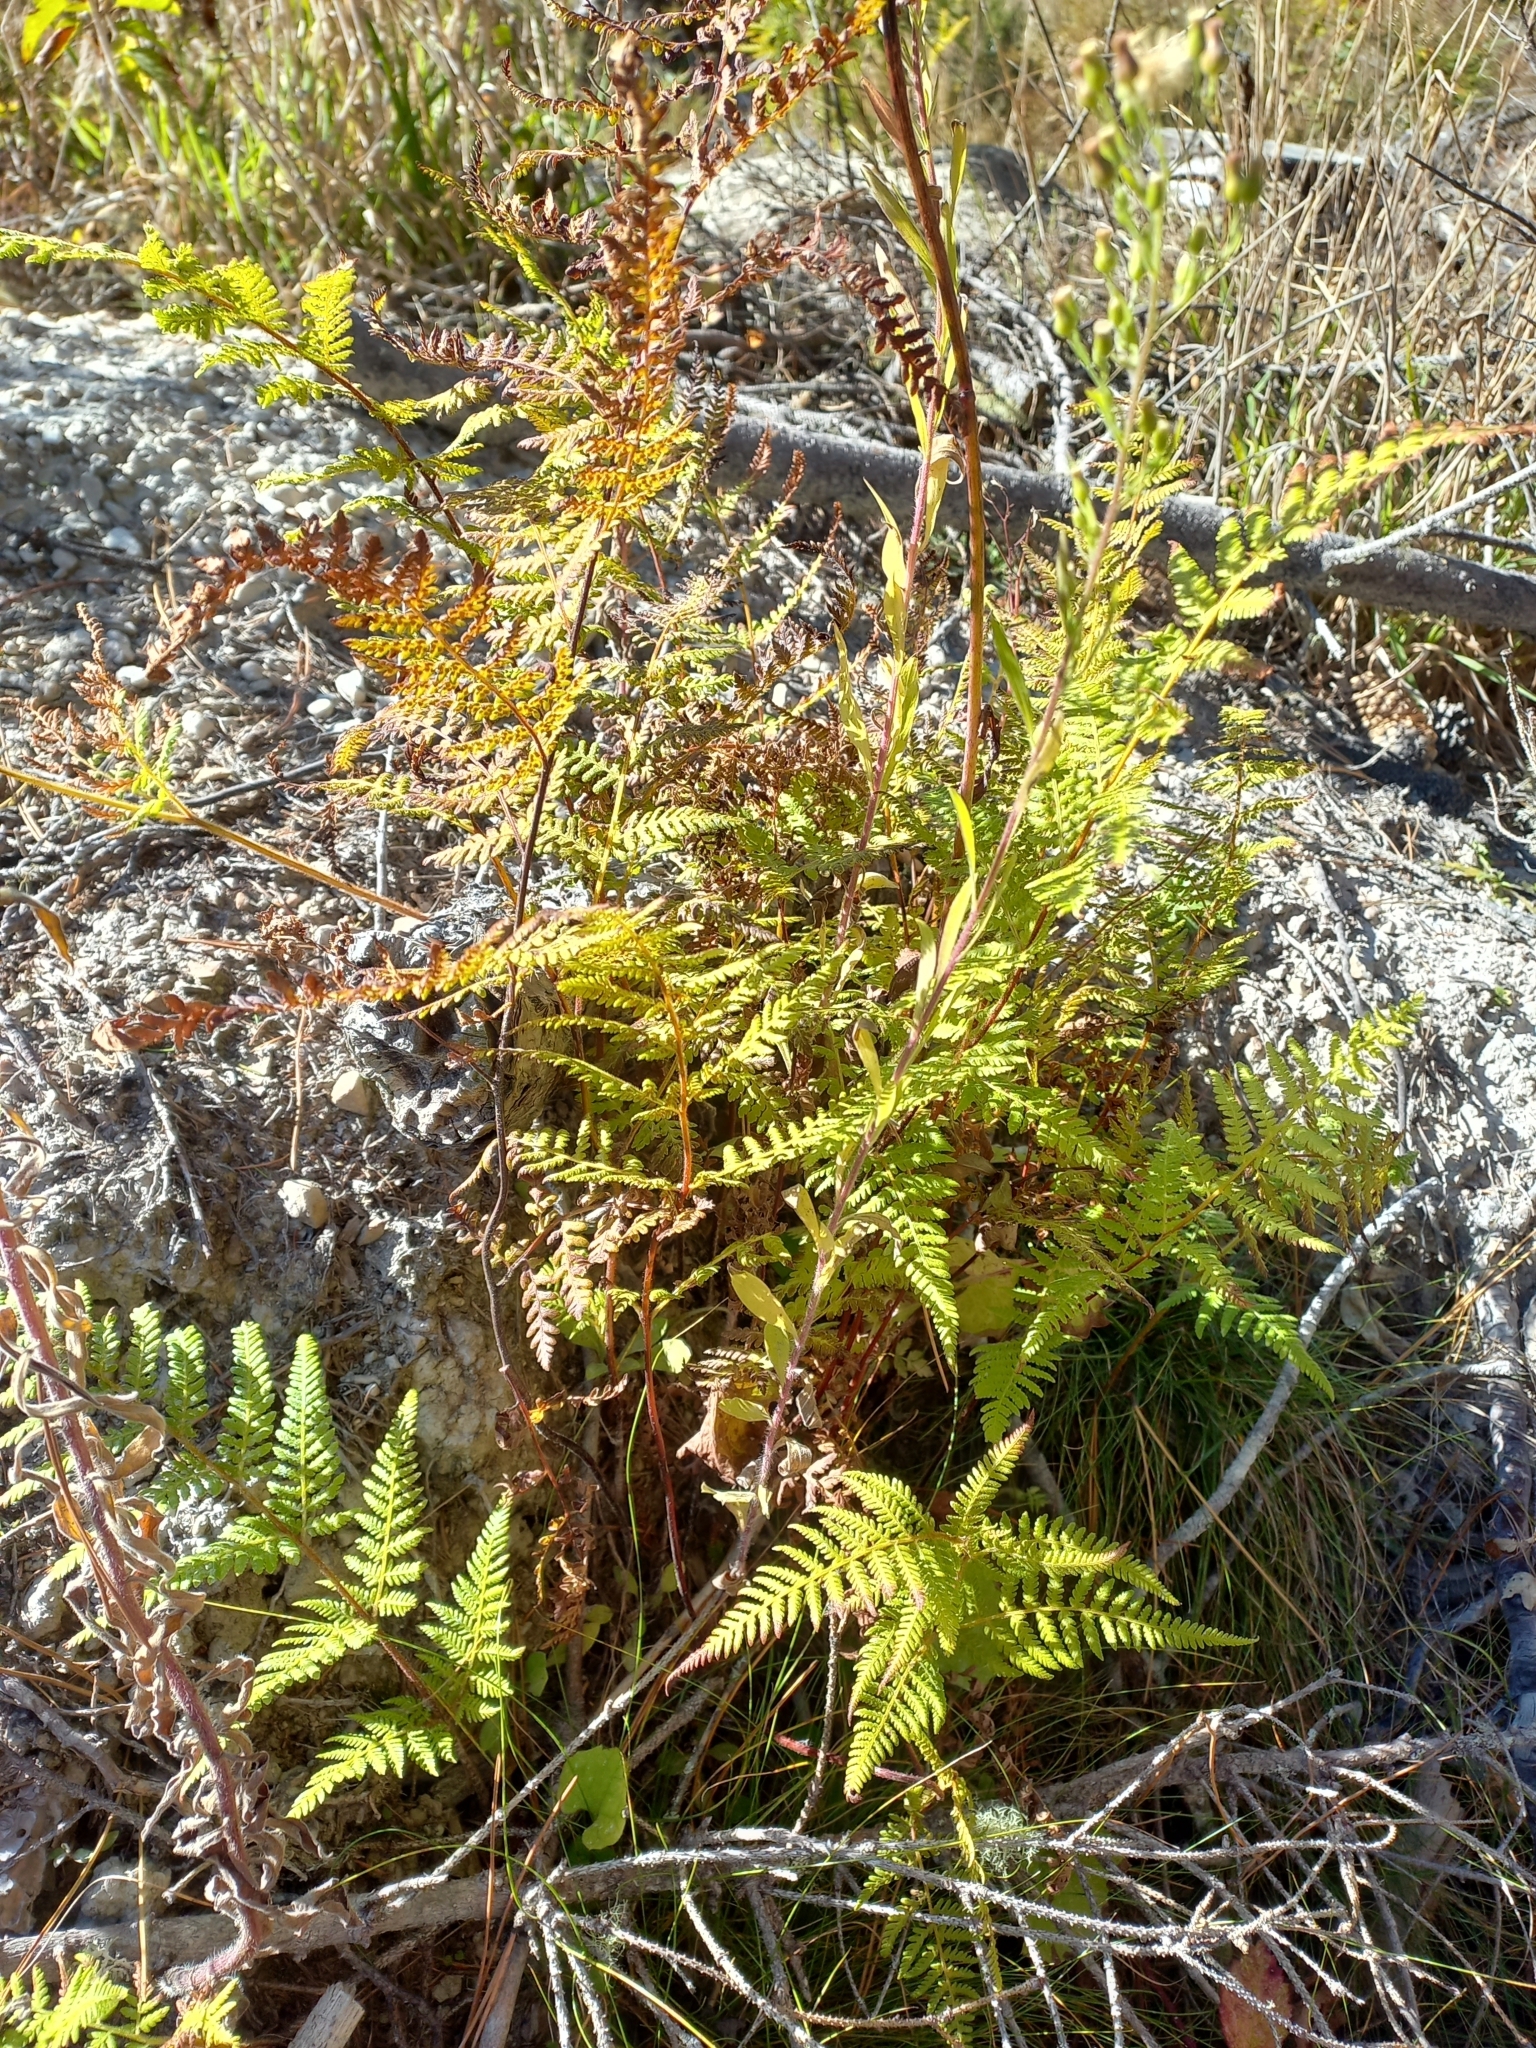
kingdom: Plantae
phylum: Tracheophyta
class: Polypodiopsida
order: Polypodiales
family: Dennstaedtiaceae
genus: Hypolepis
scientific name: Hypolepis ambigua
